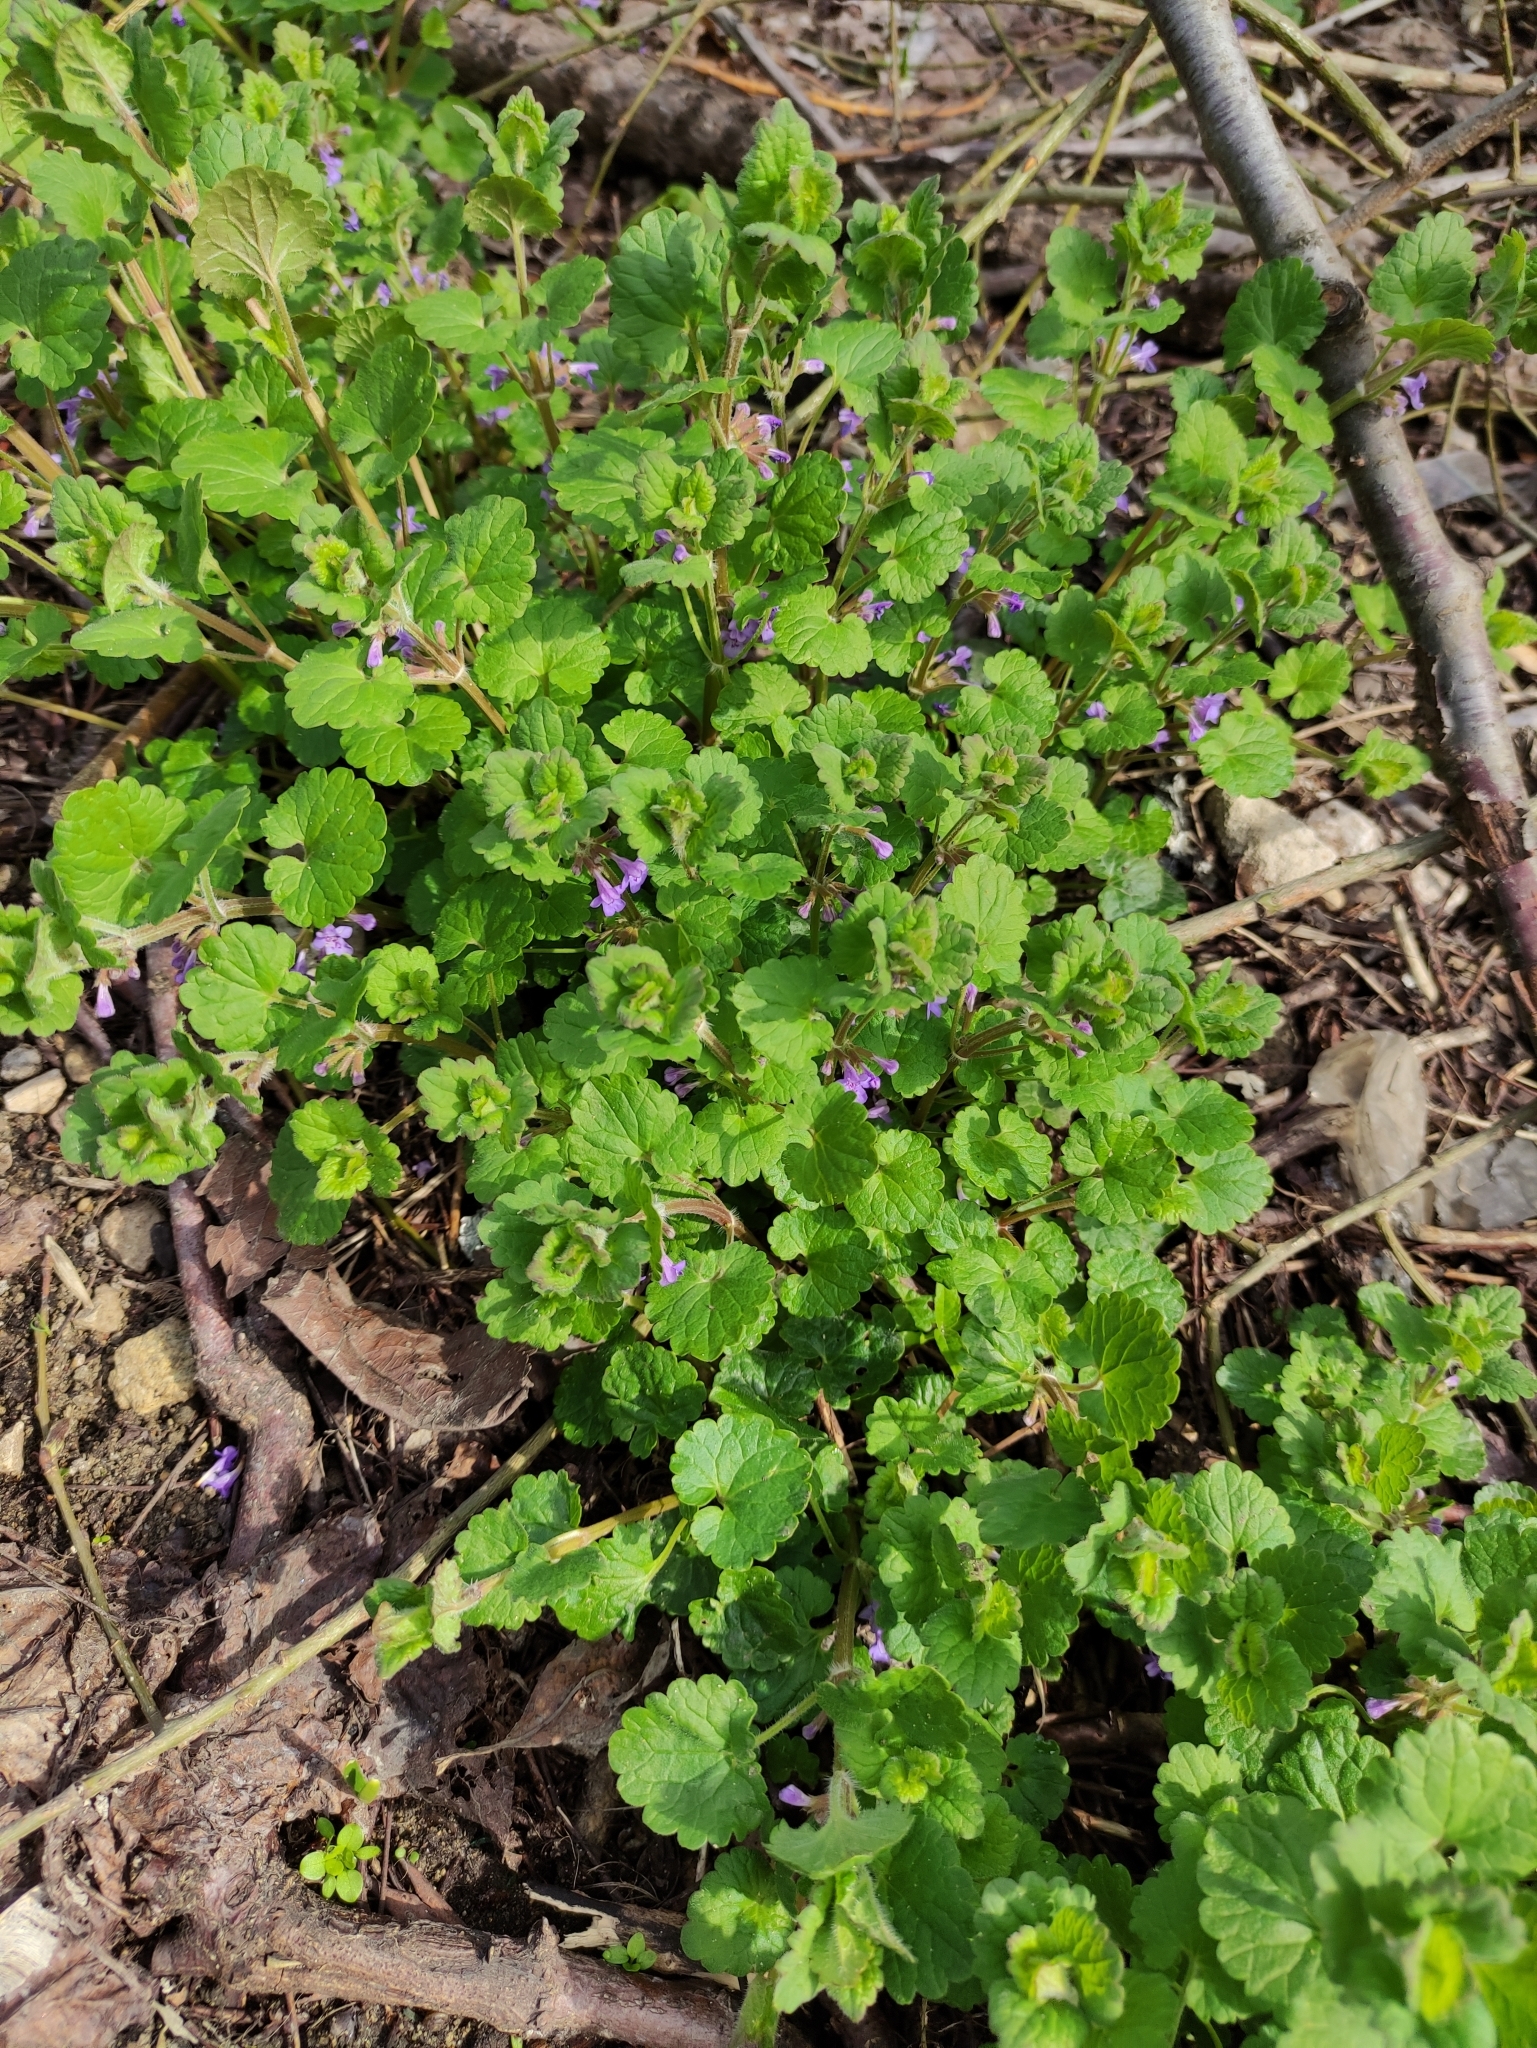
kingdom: Plantae
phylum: Tracheophyta
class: Magnoliopsida
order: Lamiales
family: Lamiaceae
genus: Glechoma
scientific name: Glechoma hederacea
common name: Ground ivy
